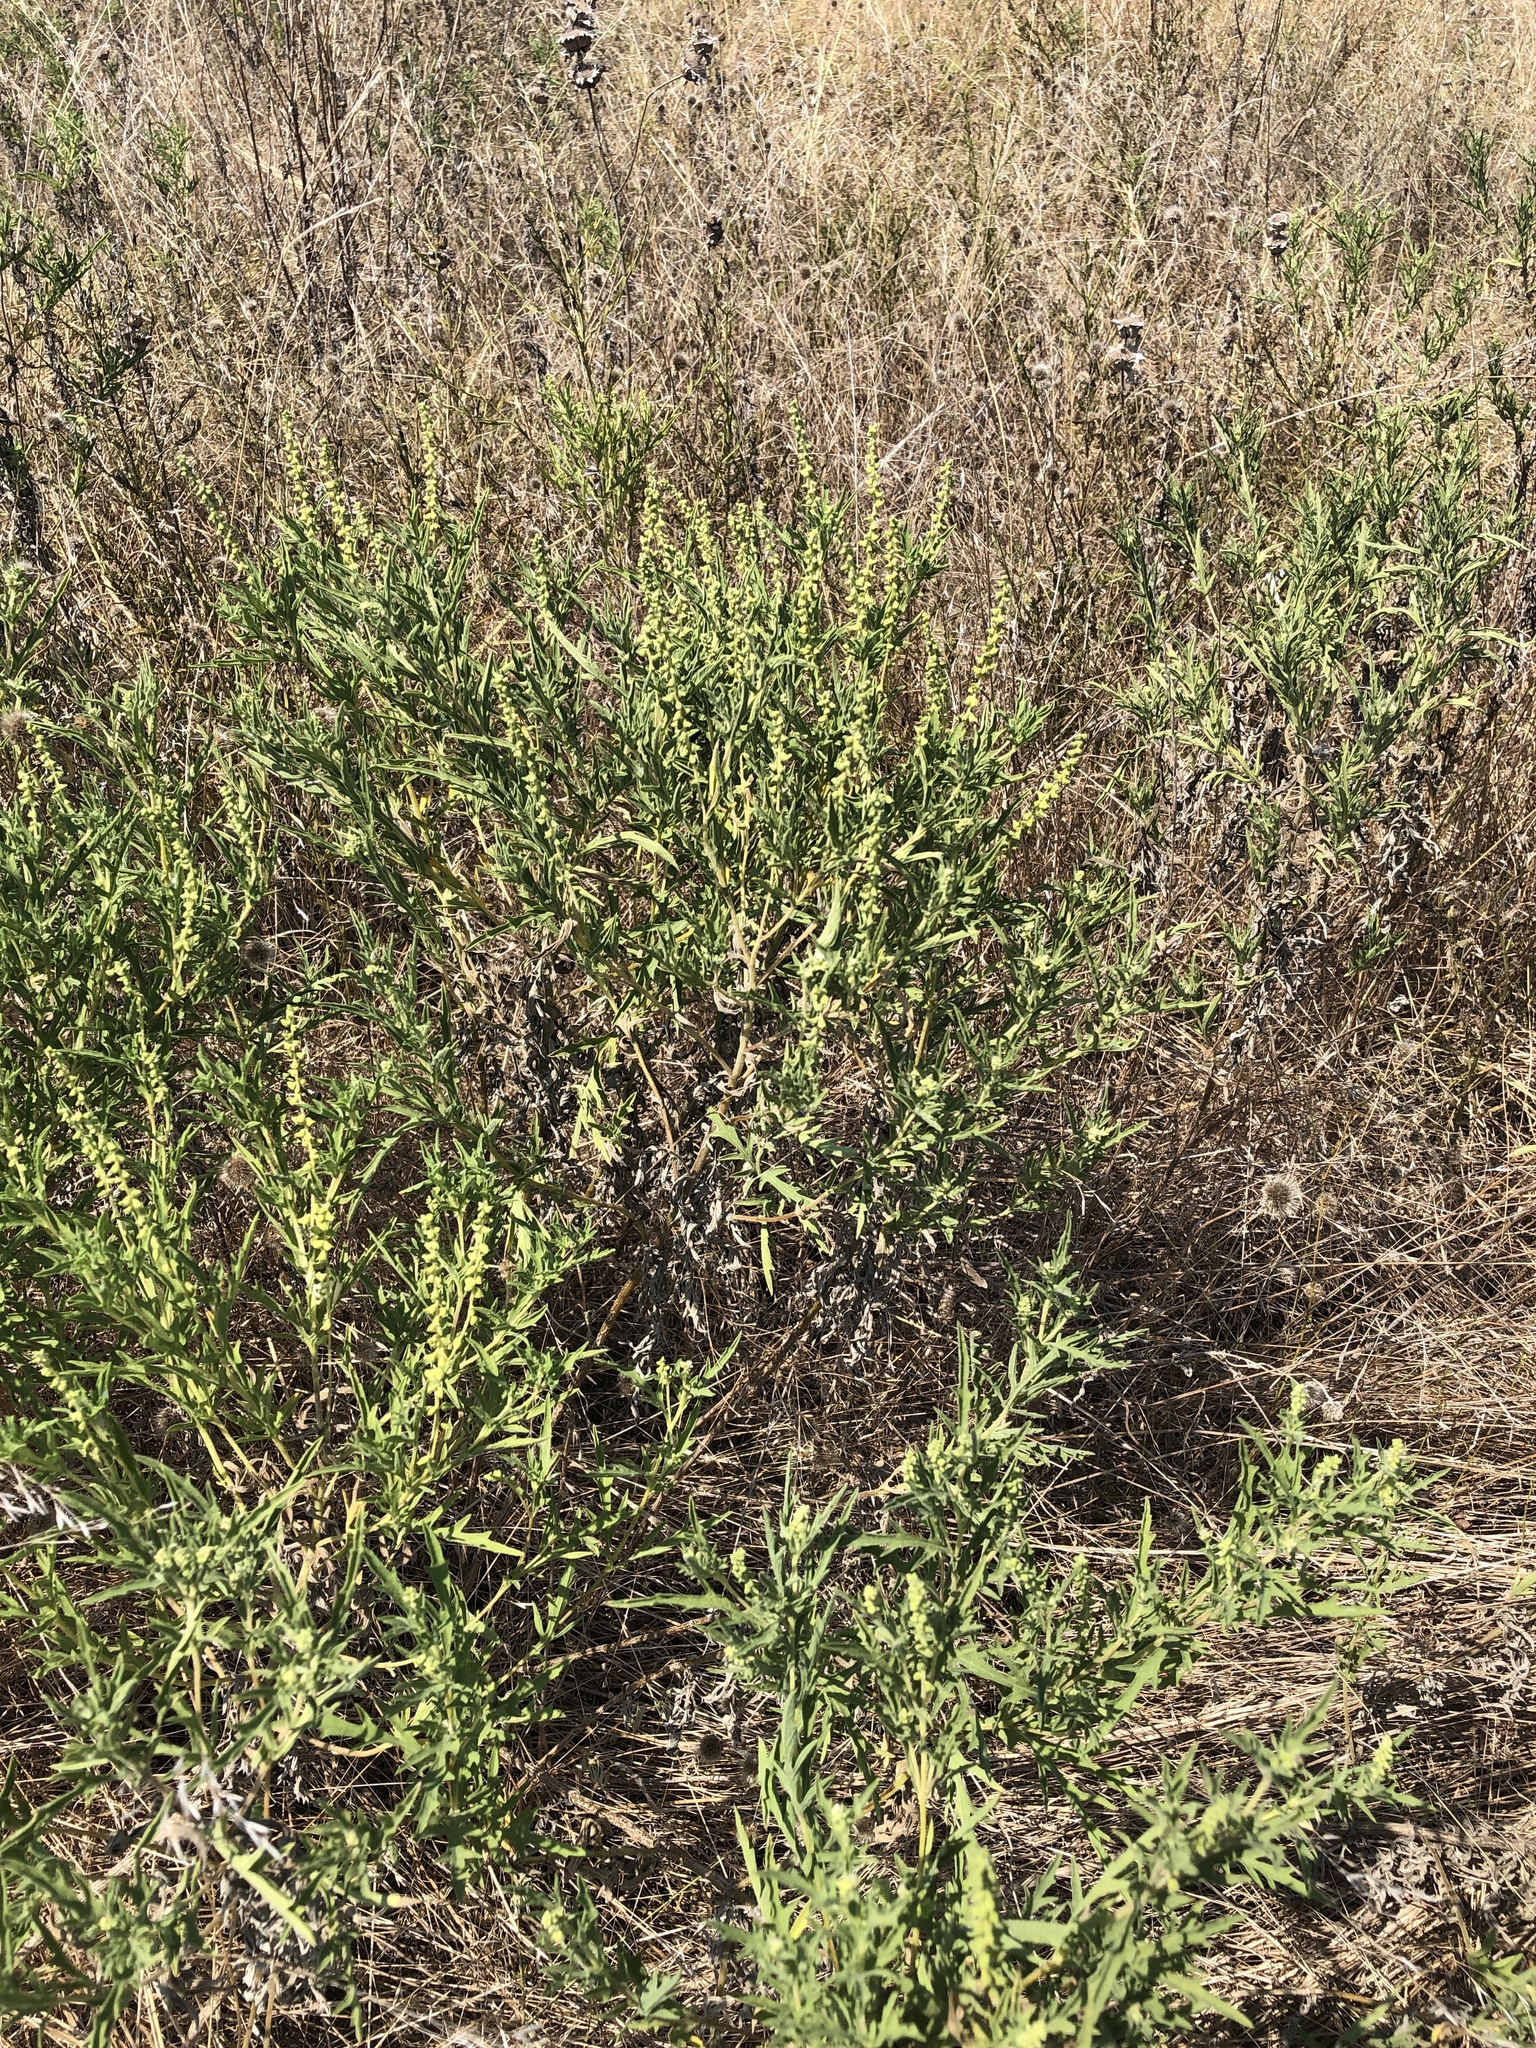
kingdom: Plantae
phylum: Tracheophyta
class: Magnoliopsida
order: Asterales
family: Asteraceae
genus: Ambrosia
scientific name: Ambrosia psilostachya
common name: Perennial ragweed
